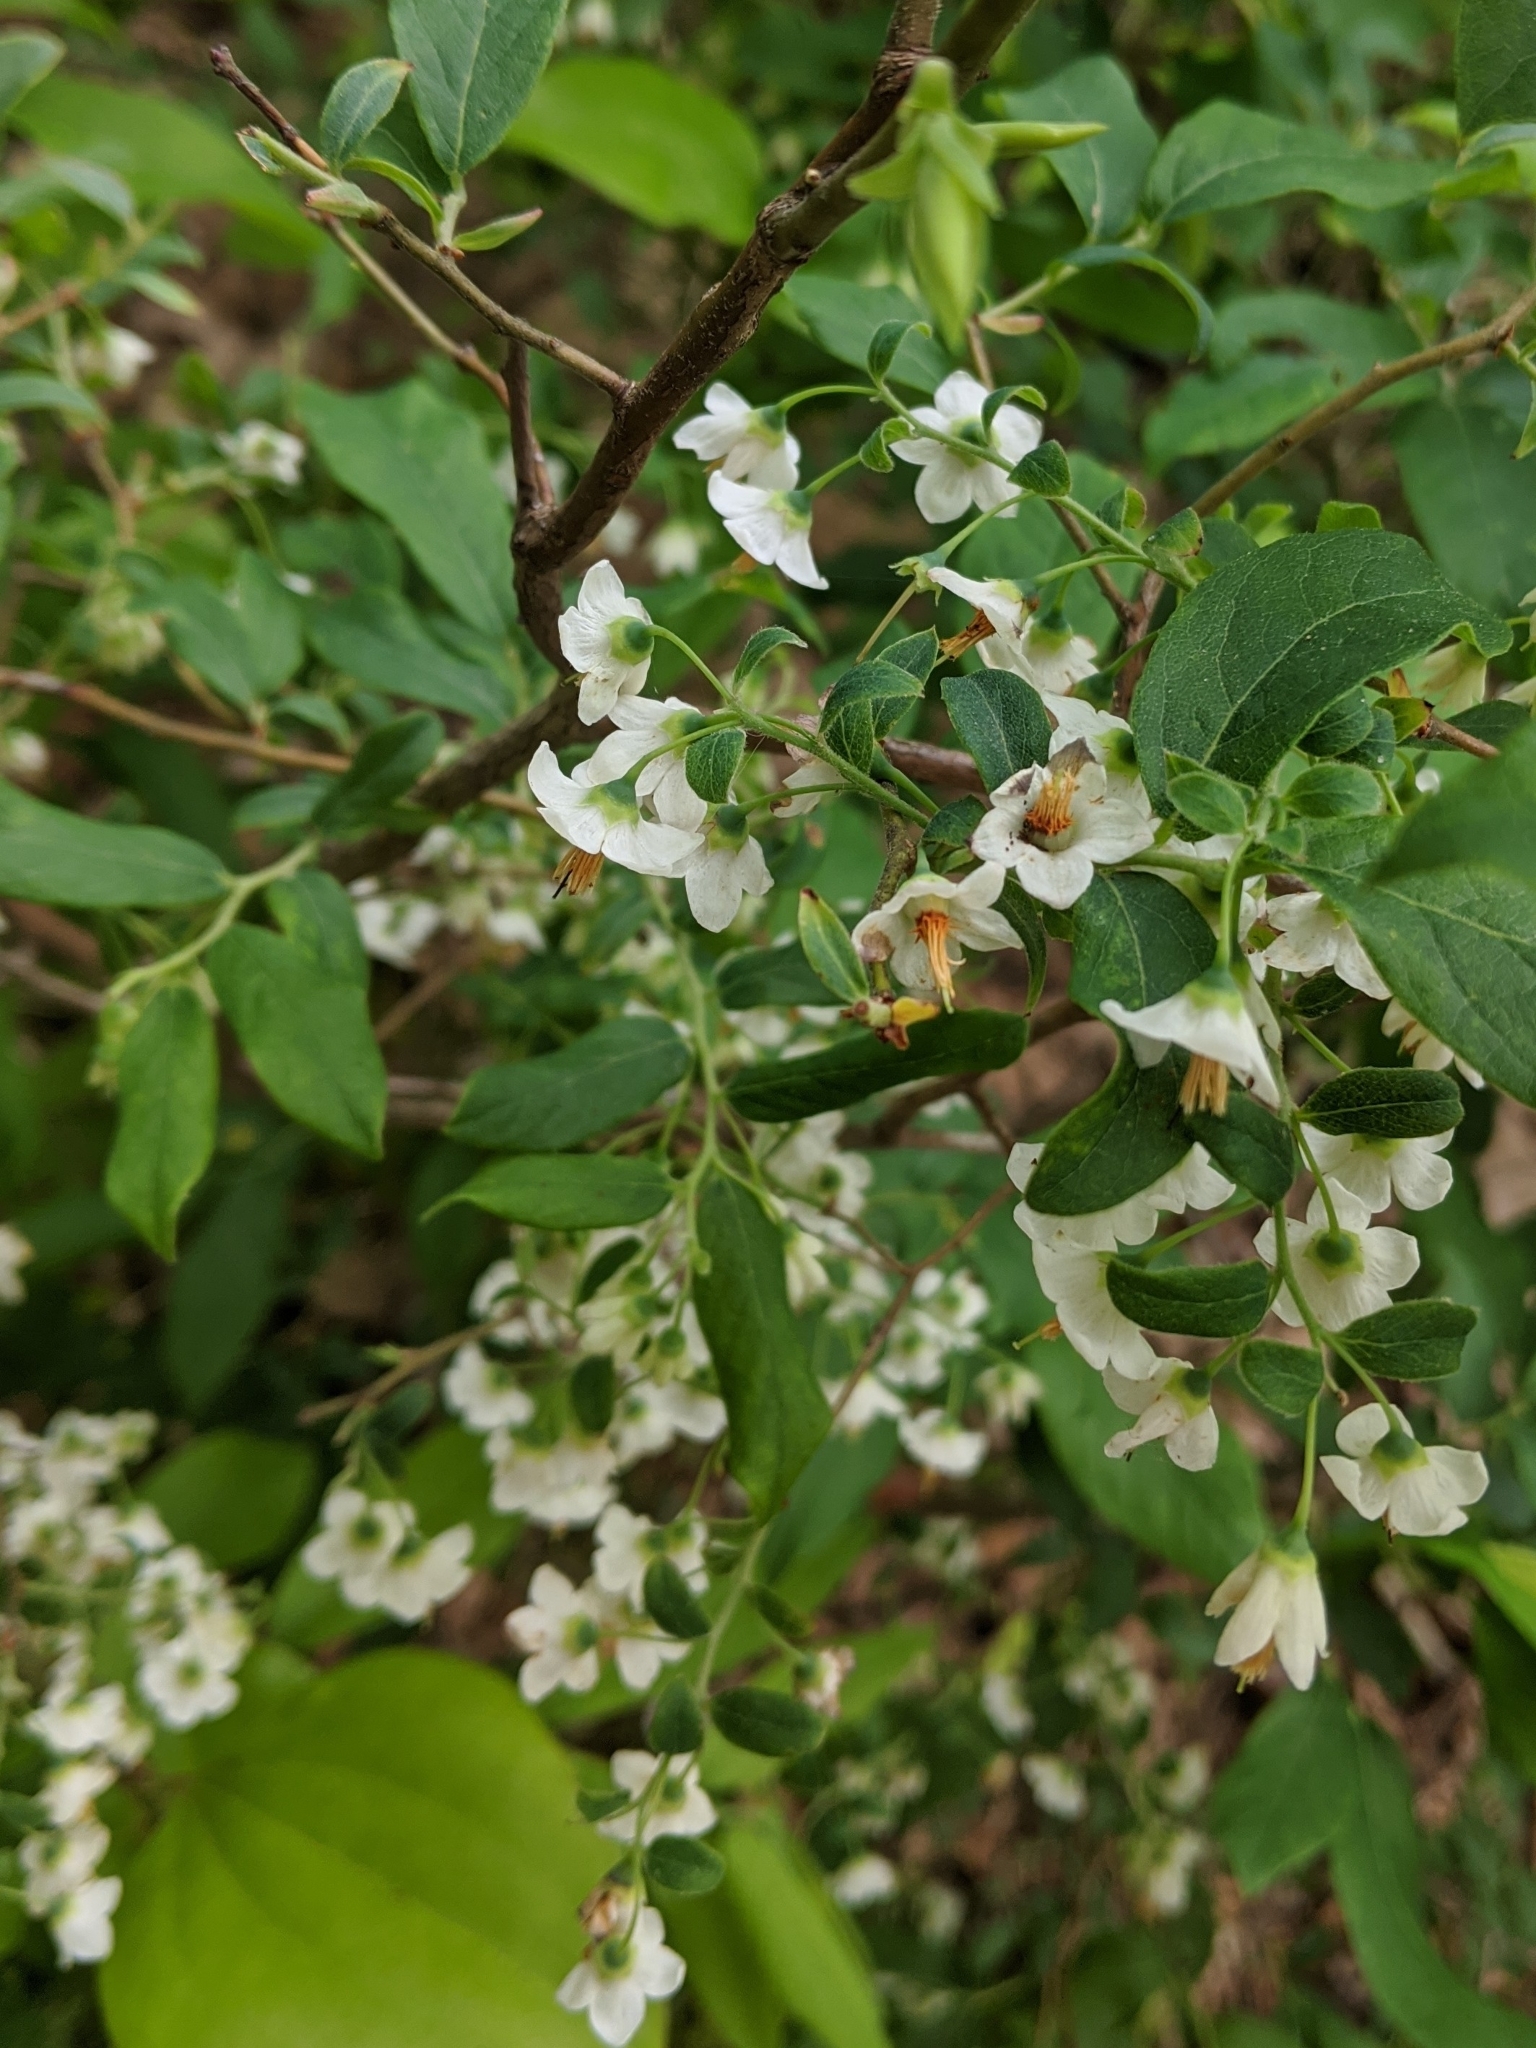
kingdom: Plantae
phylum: Tracheophyta
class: Magnoliopsida
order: Ericales
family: Ericaceae
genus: Vaccinium
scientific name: Vaccinium stamineum
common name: Deerberry
